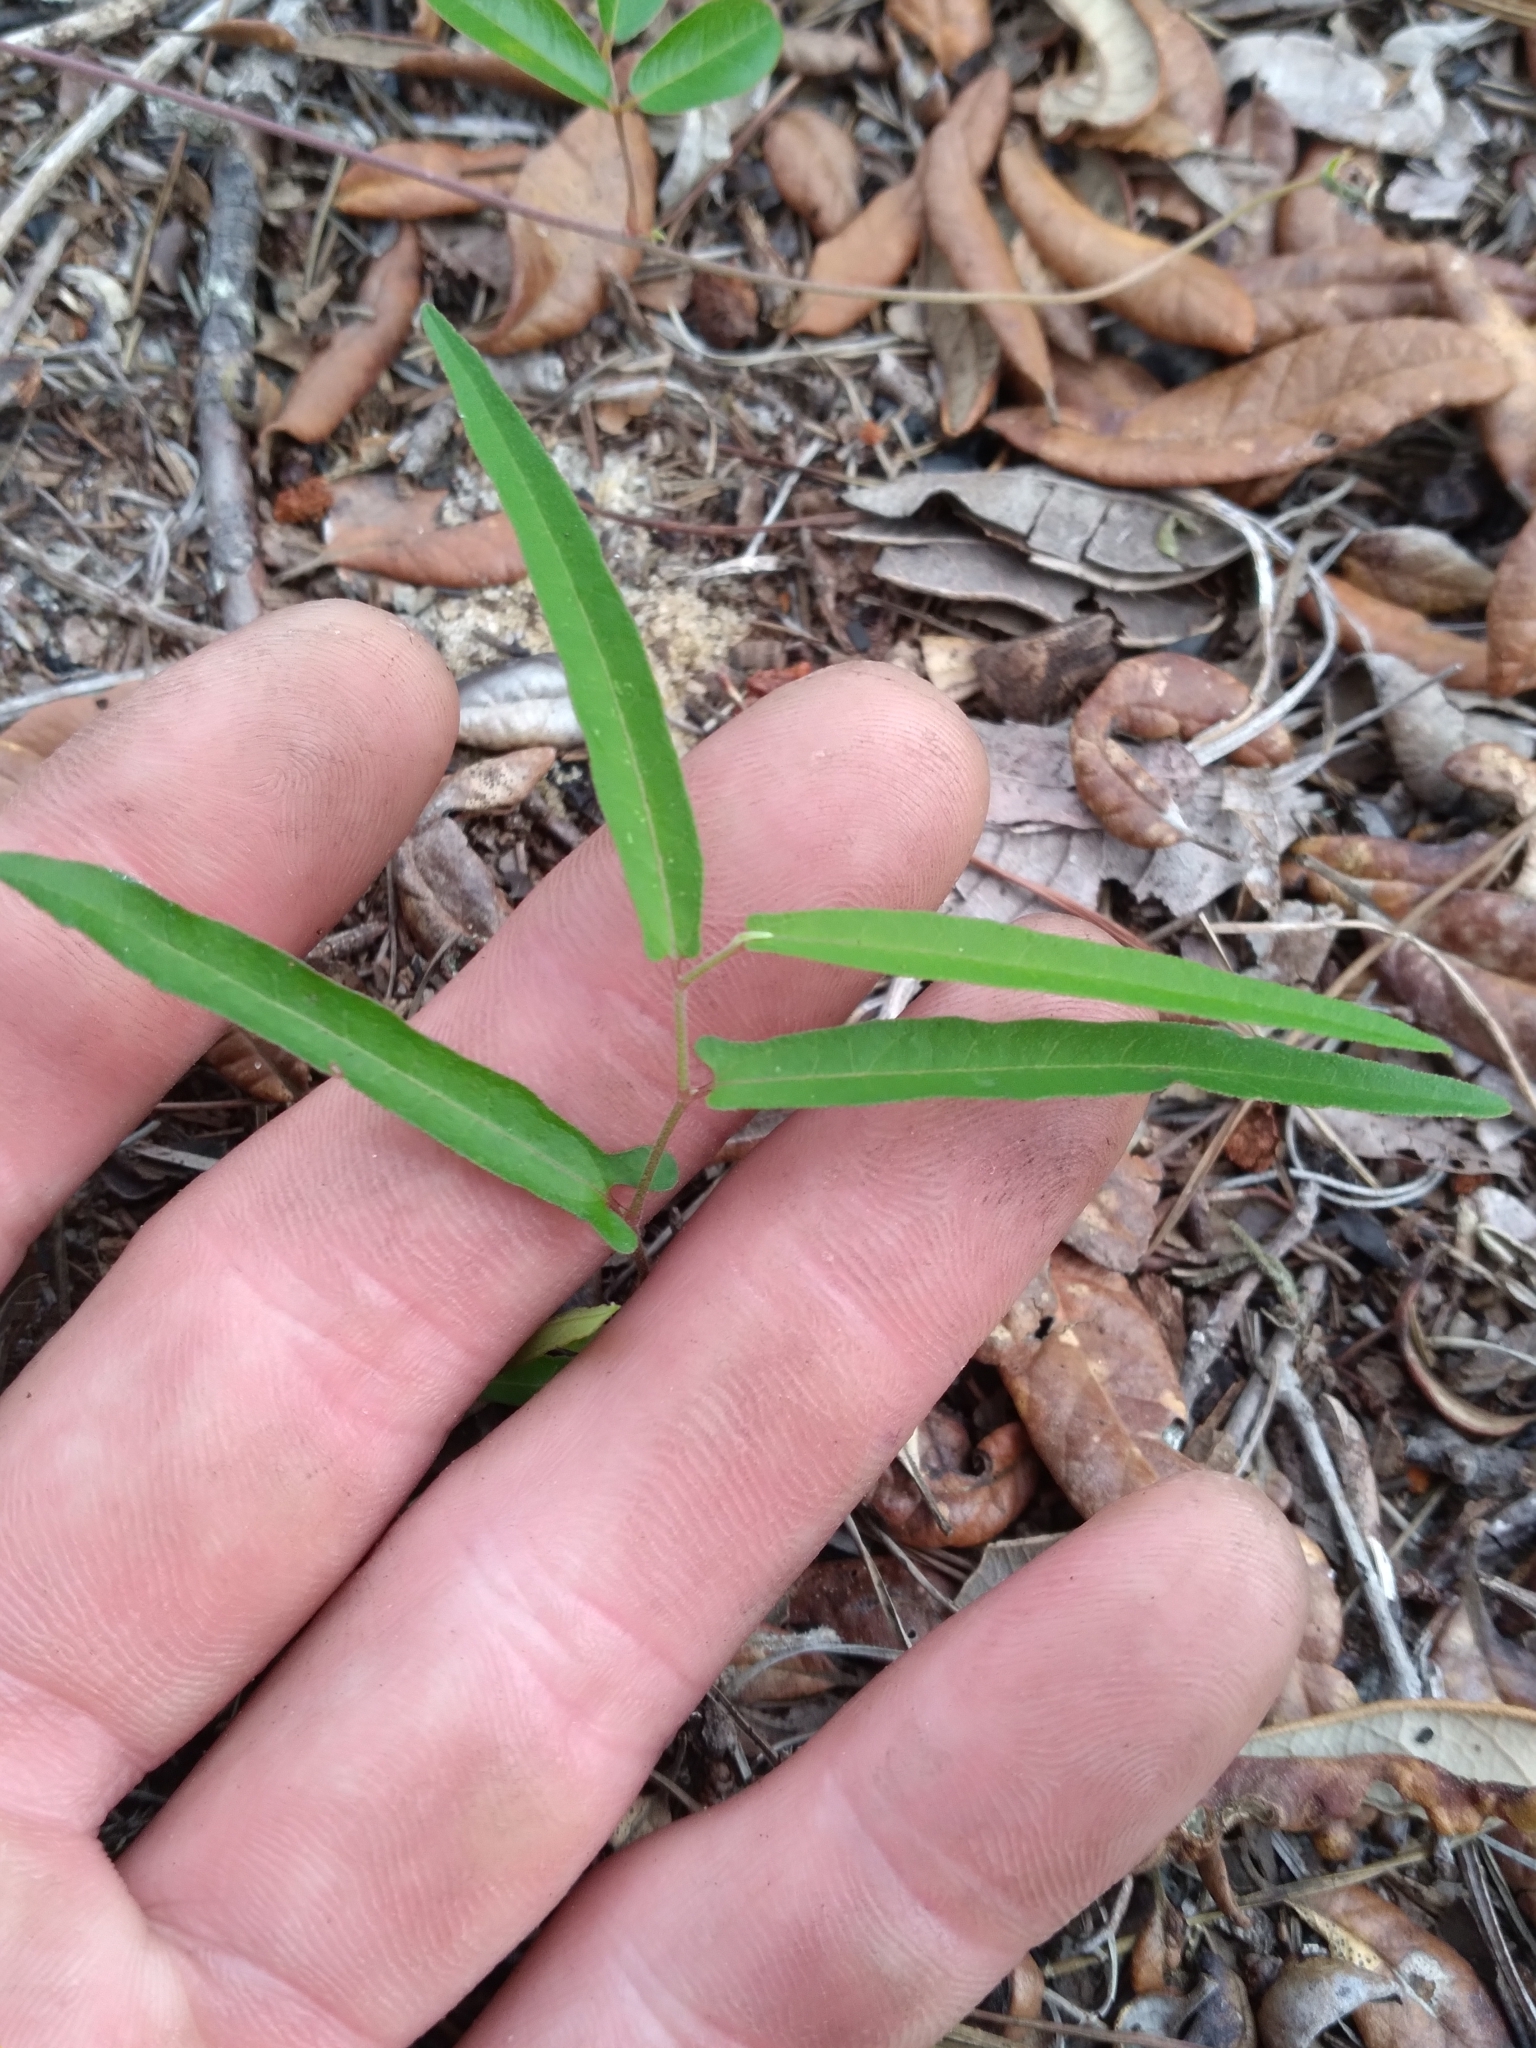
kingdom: Plantae
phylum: Tracheophyta
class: Magnoliopsida
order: Piperales
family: Aristolochiaceae
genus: Endodeca
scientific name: Endodeca serpentaria
